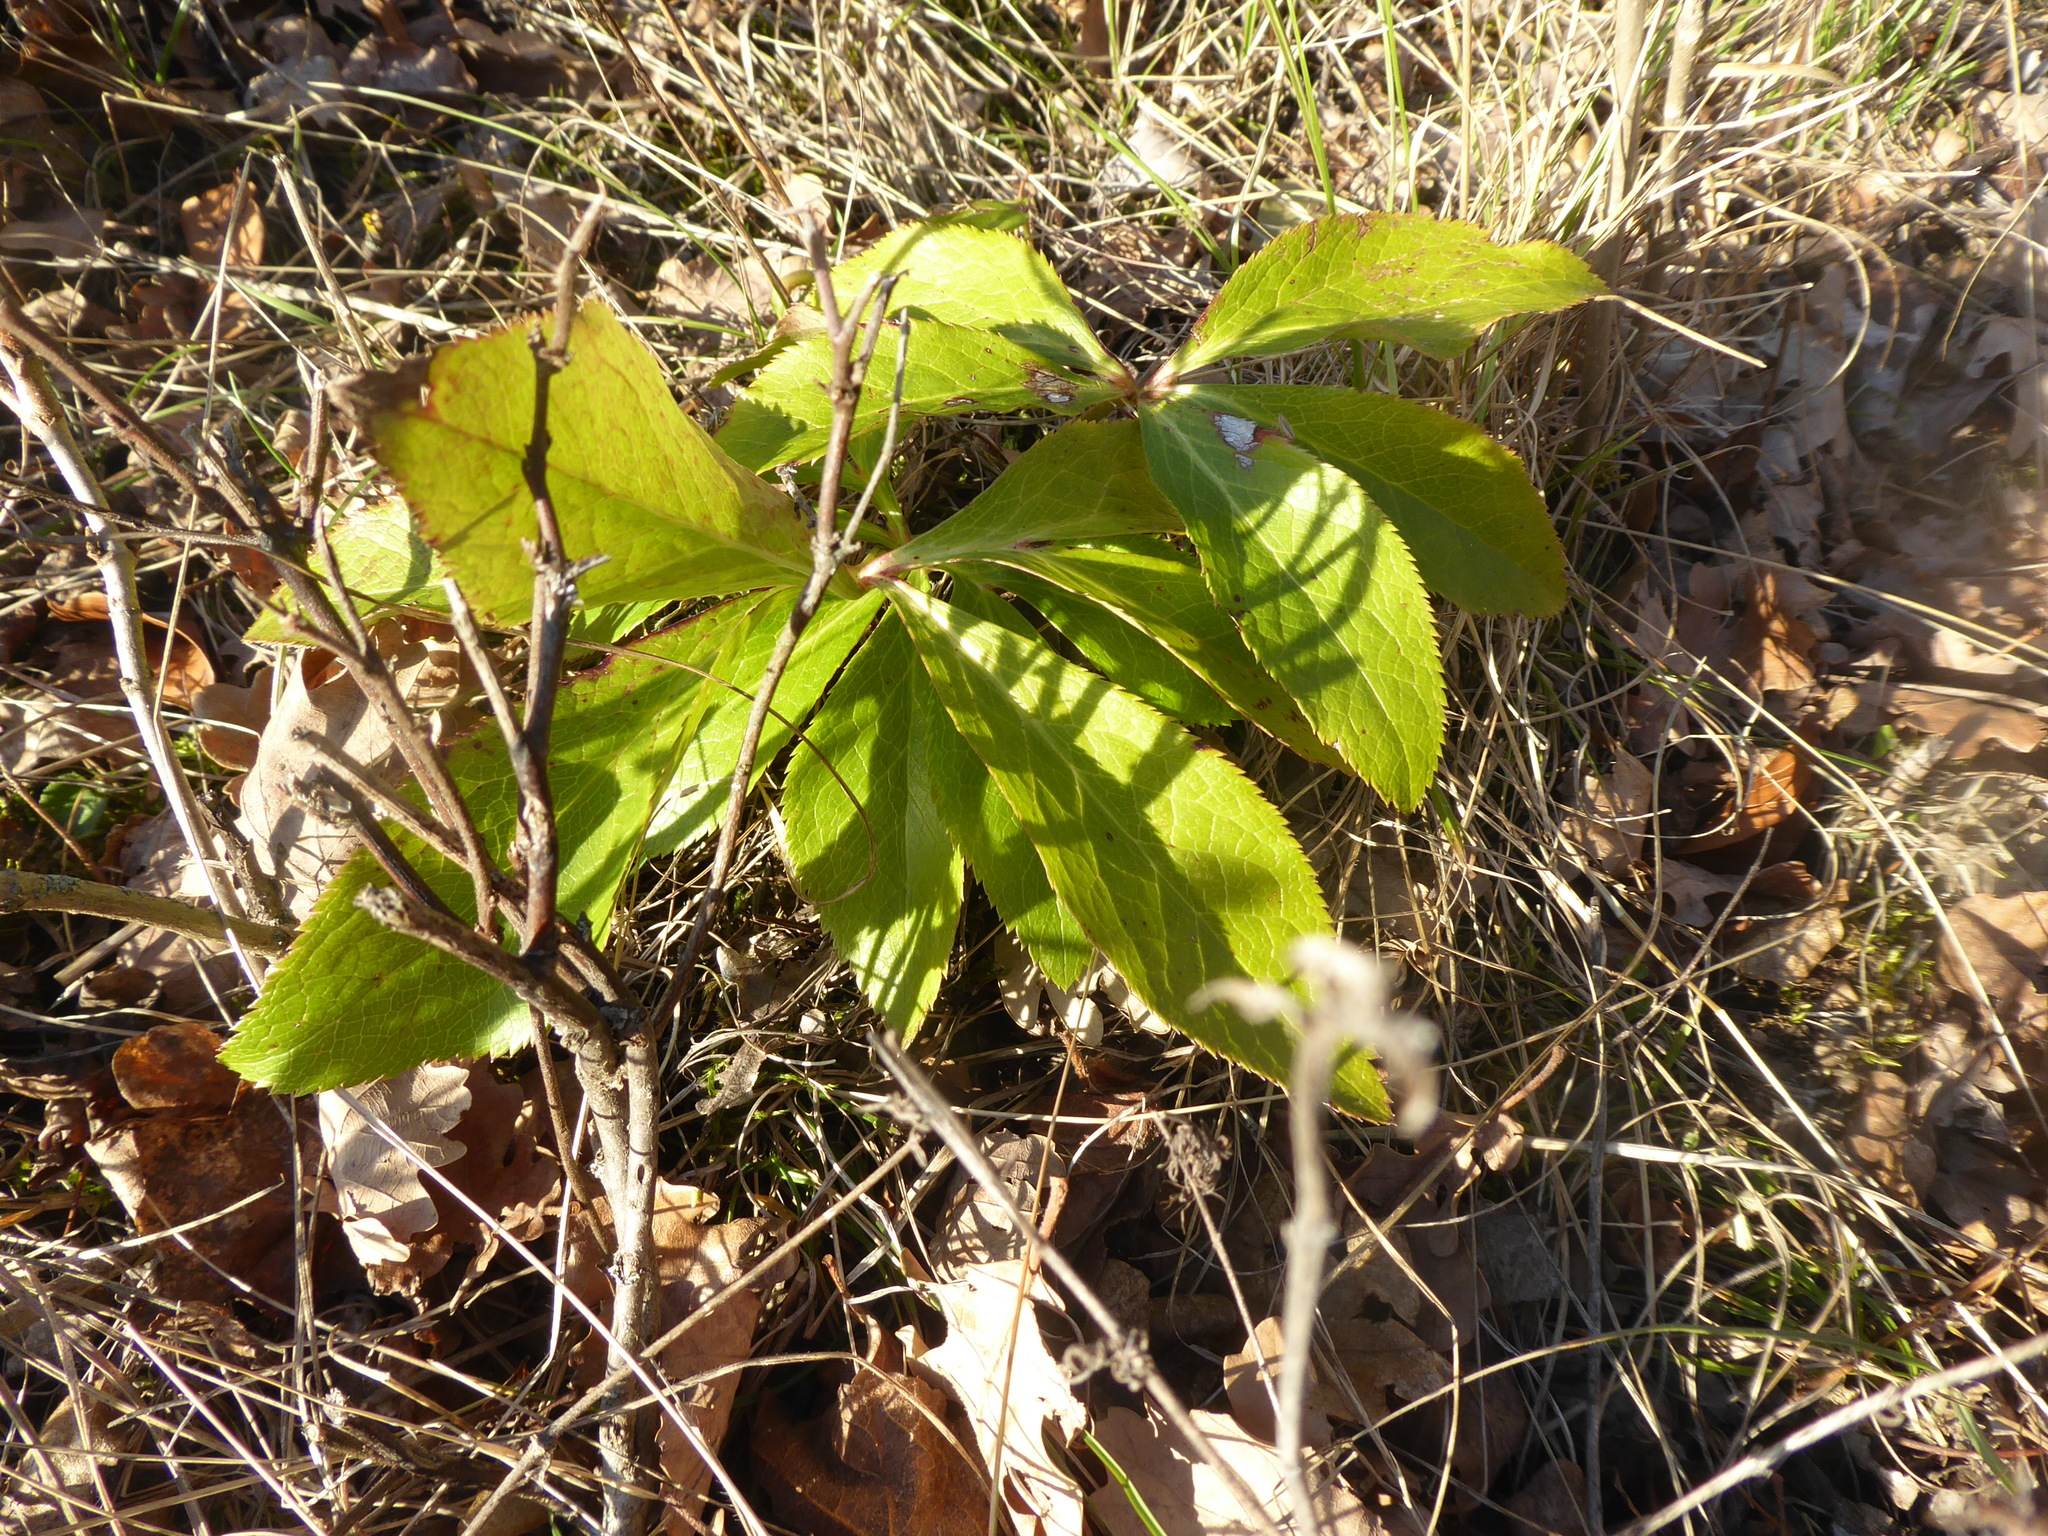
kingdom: Plantae
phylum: Tracheophyta
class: Magnoliopsida
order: Ranunculales
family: Ranunculaceae
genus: Helleborus
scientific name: Helleborus hybridus
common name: Hybrid lenten-rose
